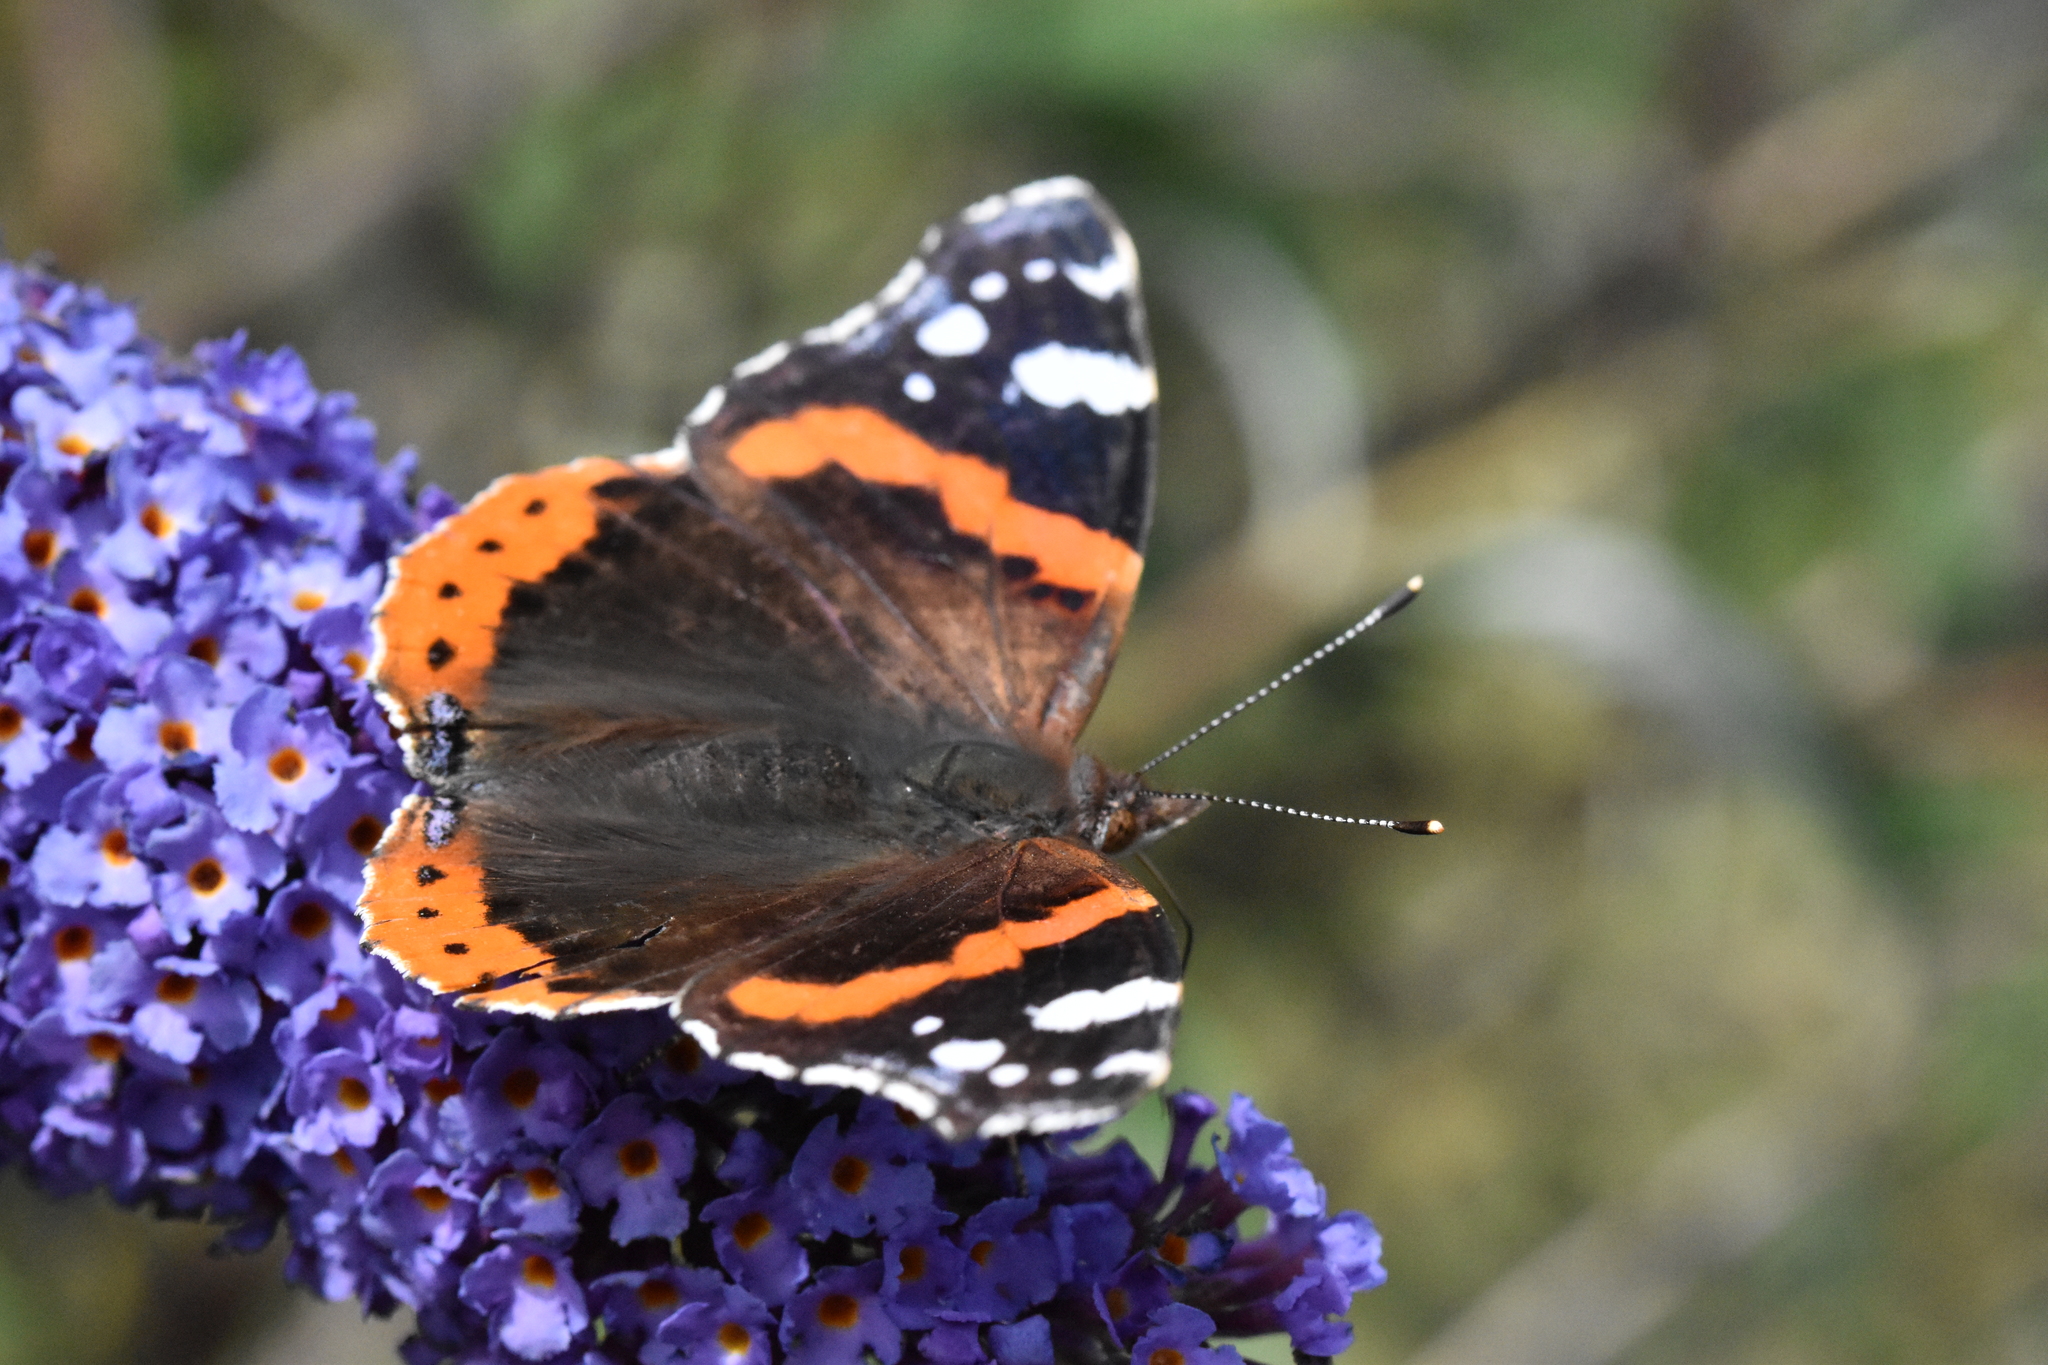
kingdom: Animalia
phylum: Arthropoda
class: Insecta
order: Lepidoptera
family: Nymphalidae
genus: Vanessa
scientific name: Vanessa atalanta
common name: Red admiral
